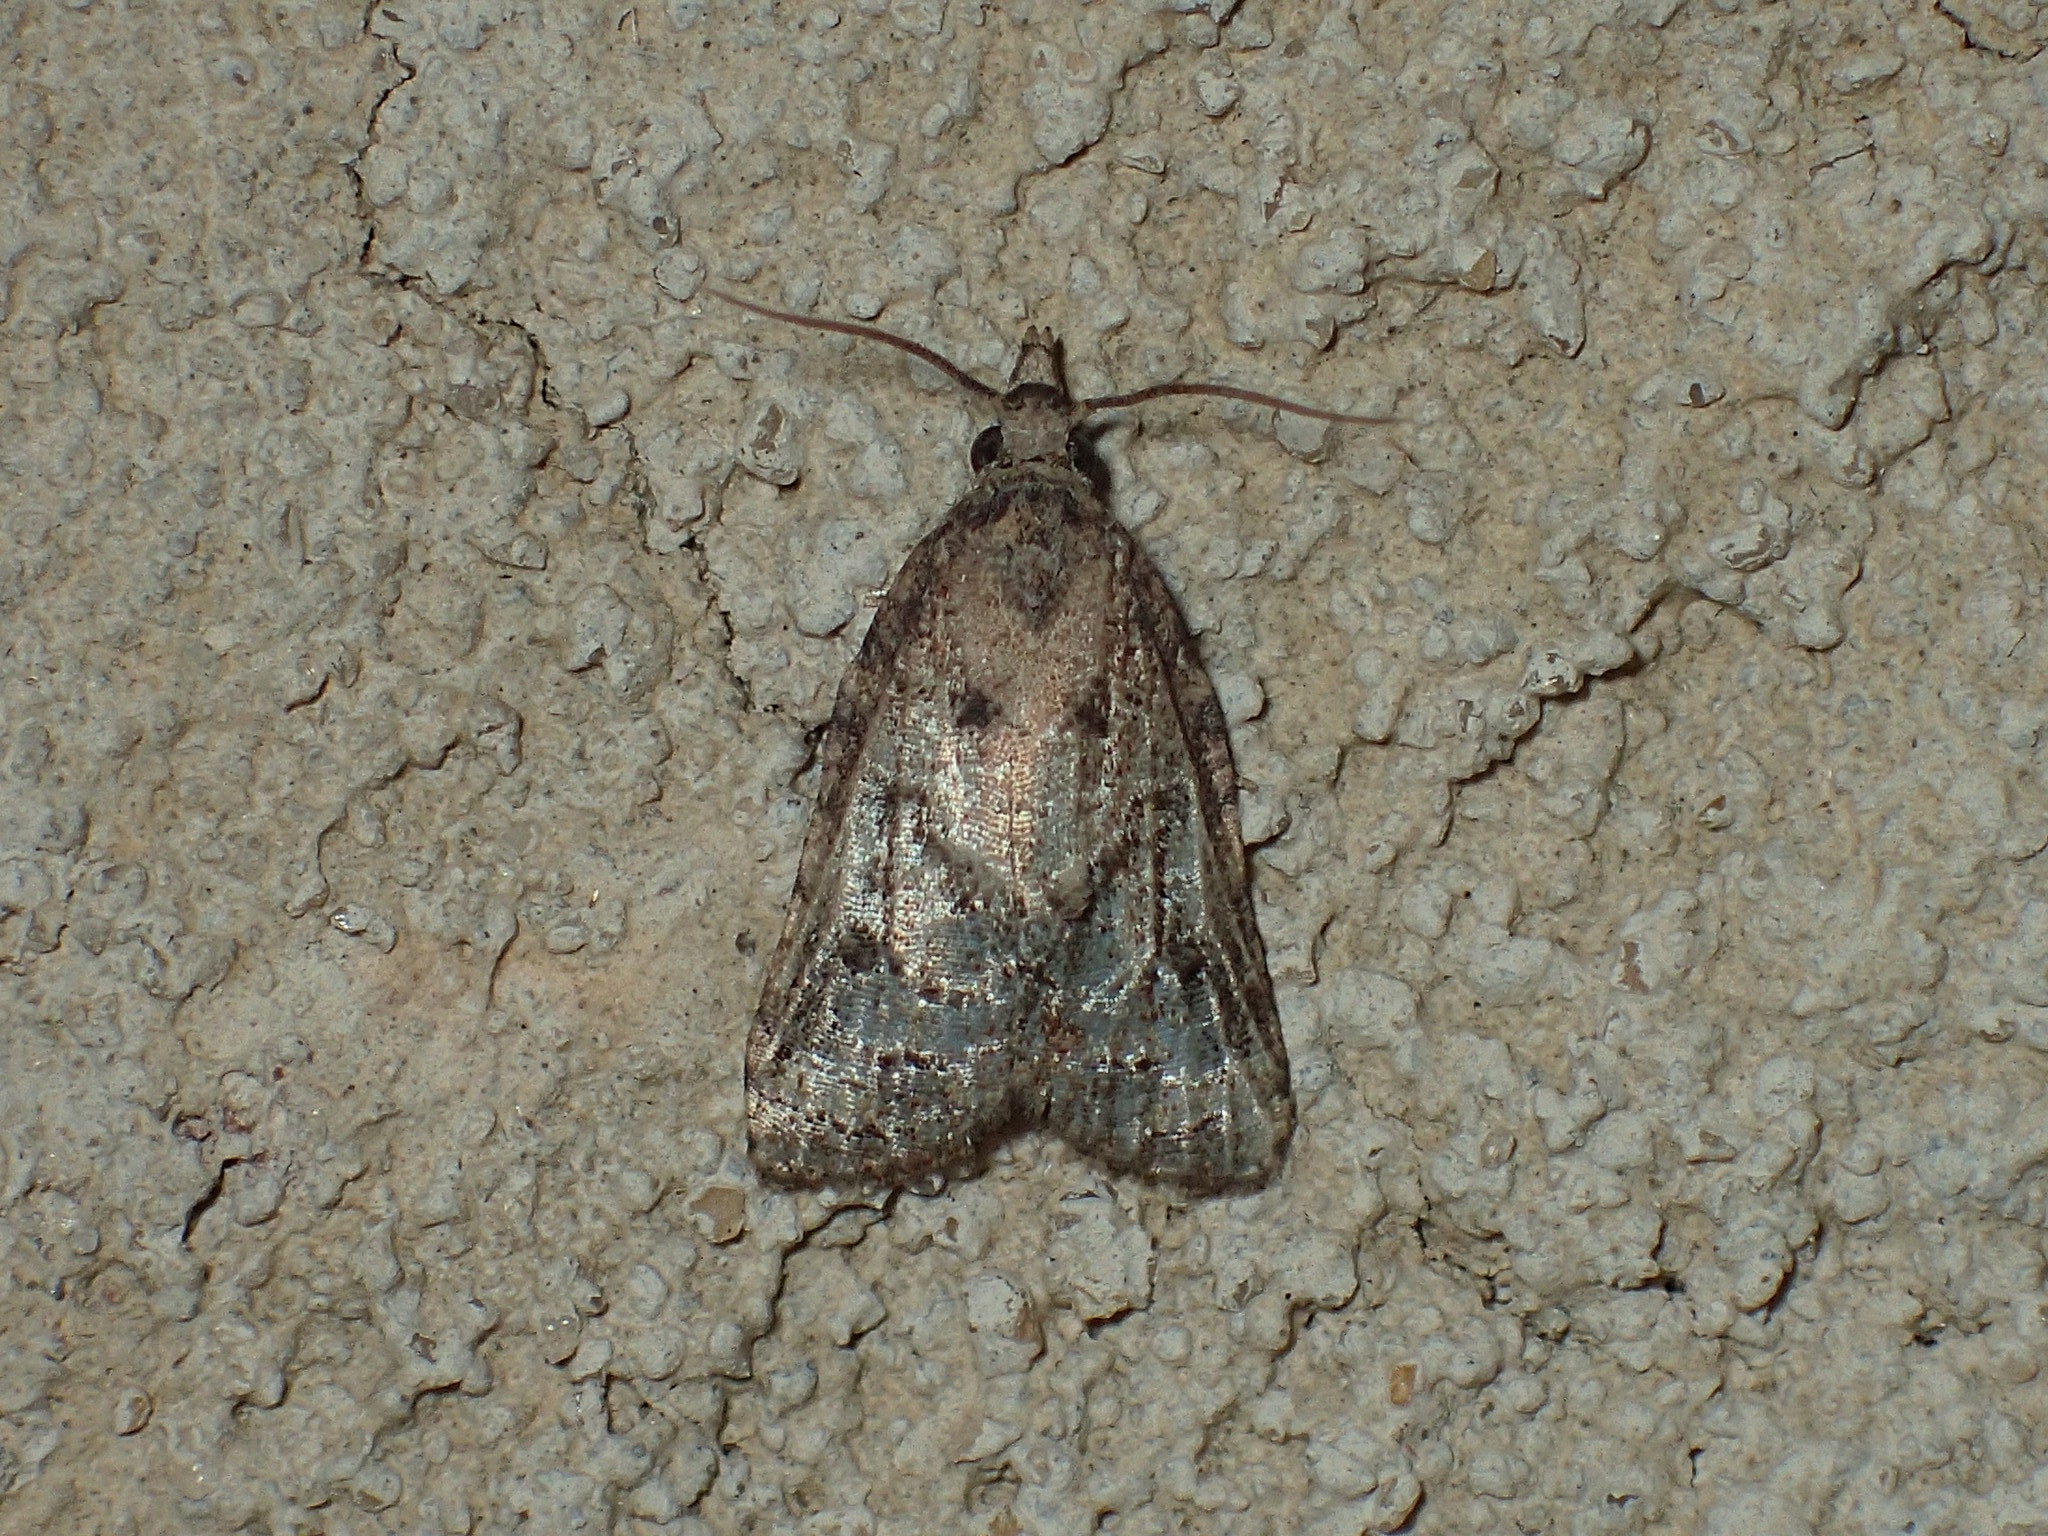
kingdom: Animalia
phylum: Arthropoda
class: Insecta
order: Lepidoptera
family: Tortricidae
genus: Platynota
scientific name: Platynota idaeusalis
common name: Tufted apple bud moth
